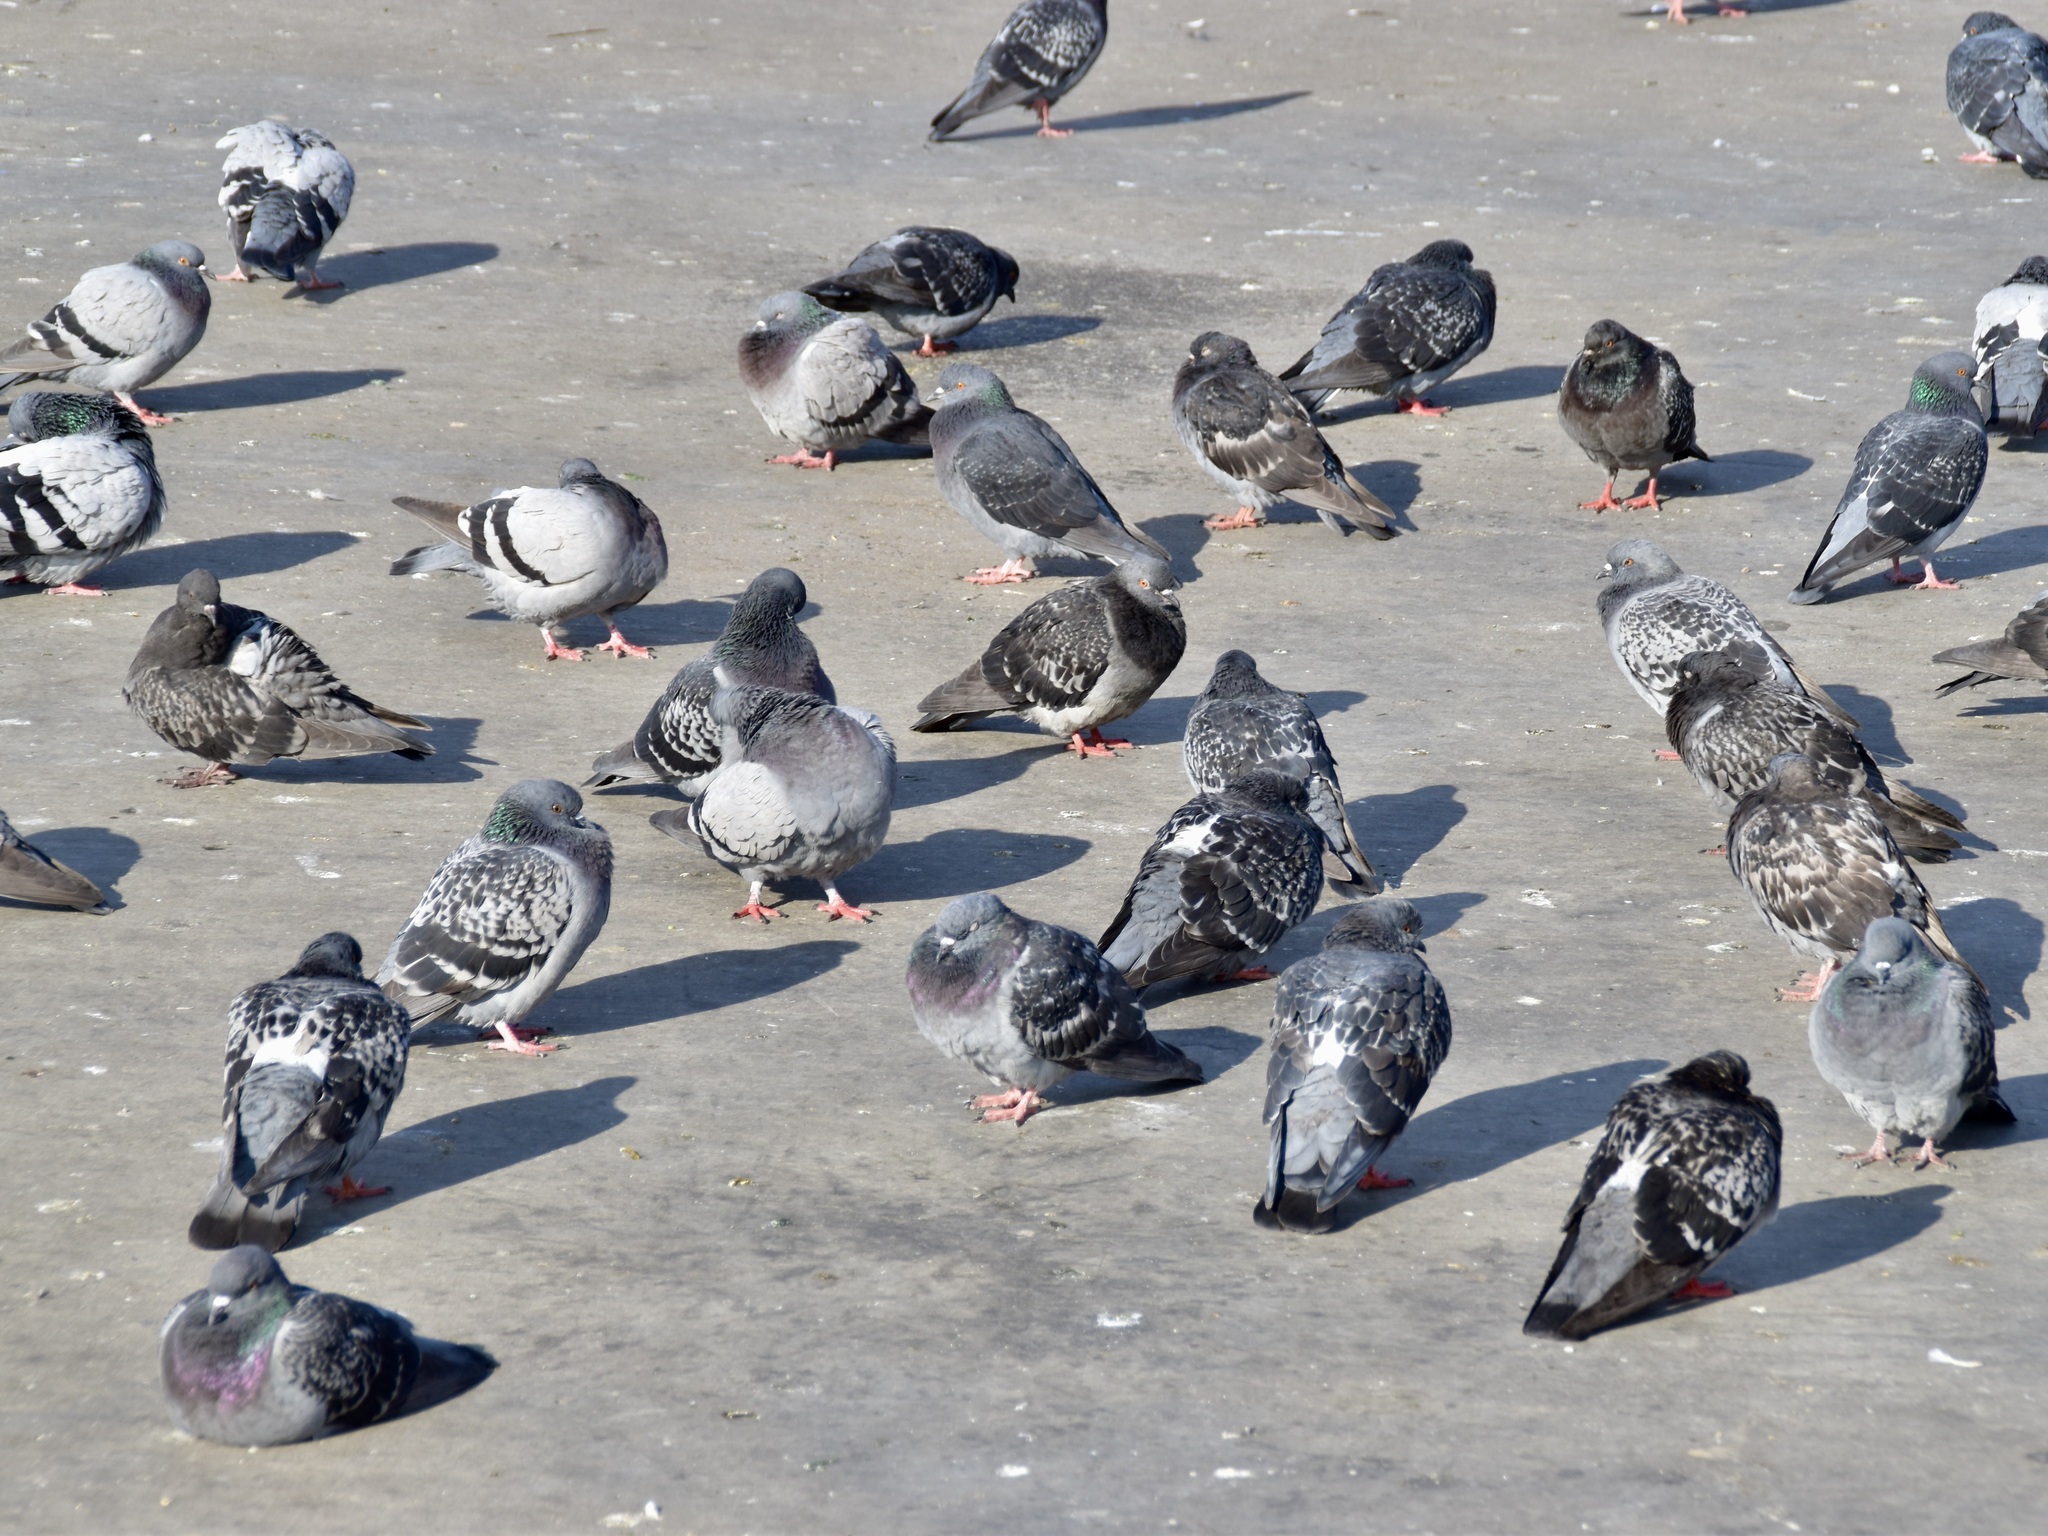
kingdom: Animalia
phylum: Chordata
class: Aves
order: Columbiformes
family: Columbidae
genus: Columba
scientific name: Columba livia
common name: Rock pigeon
